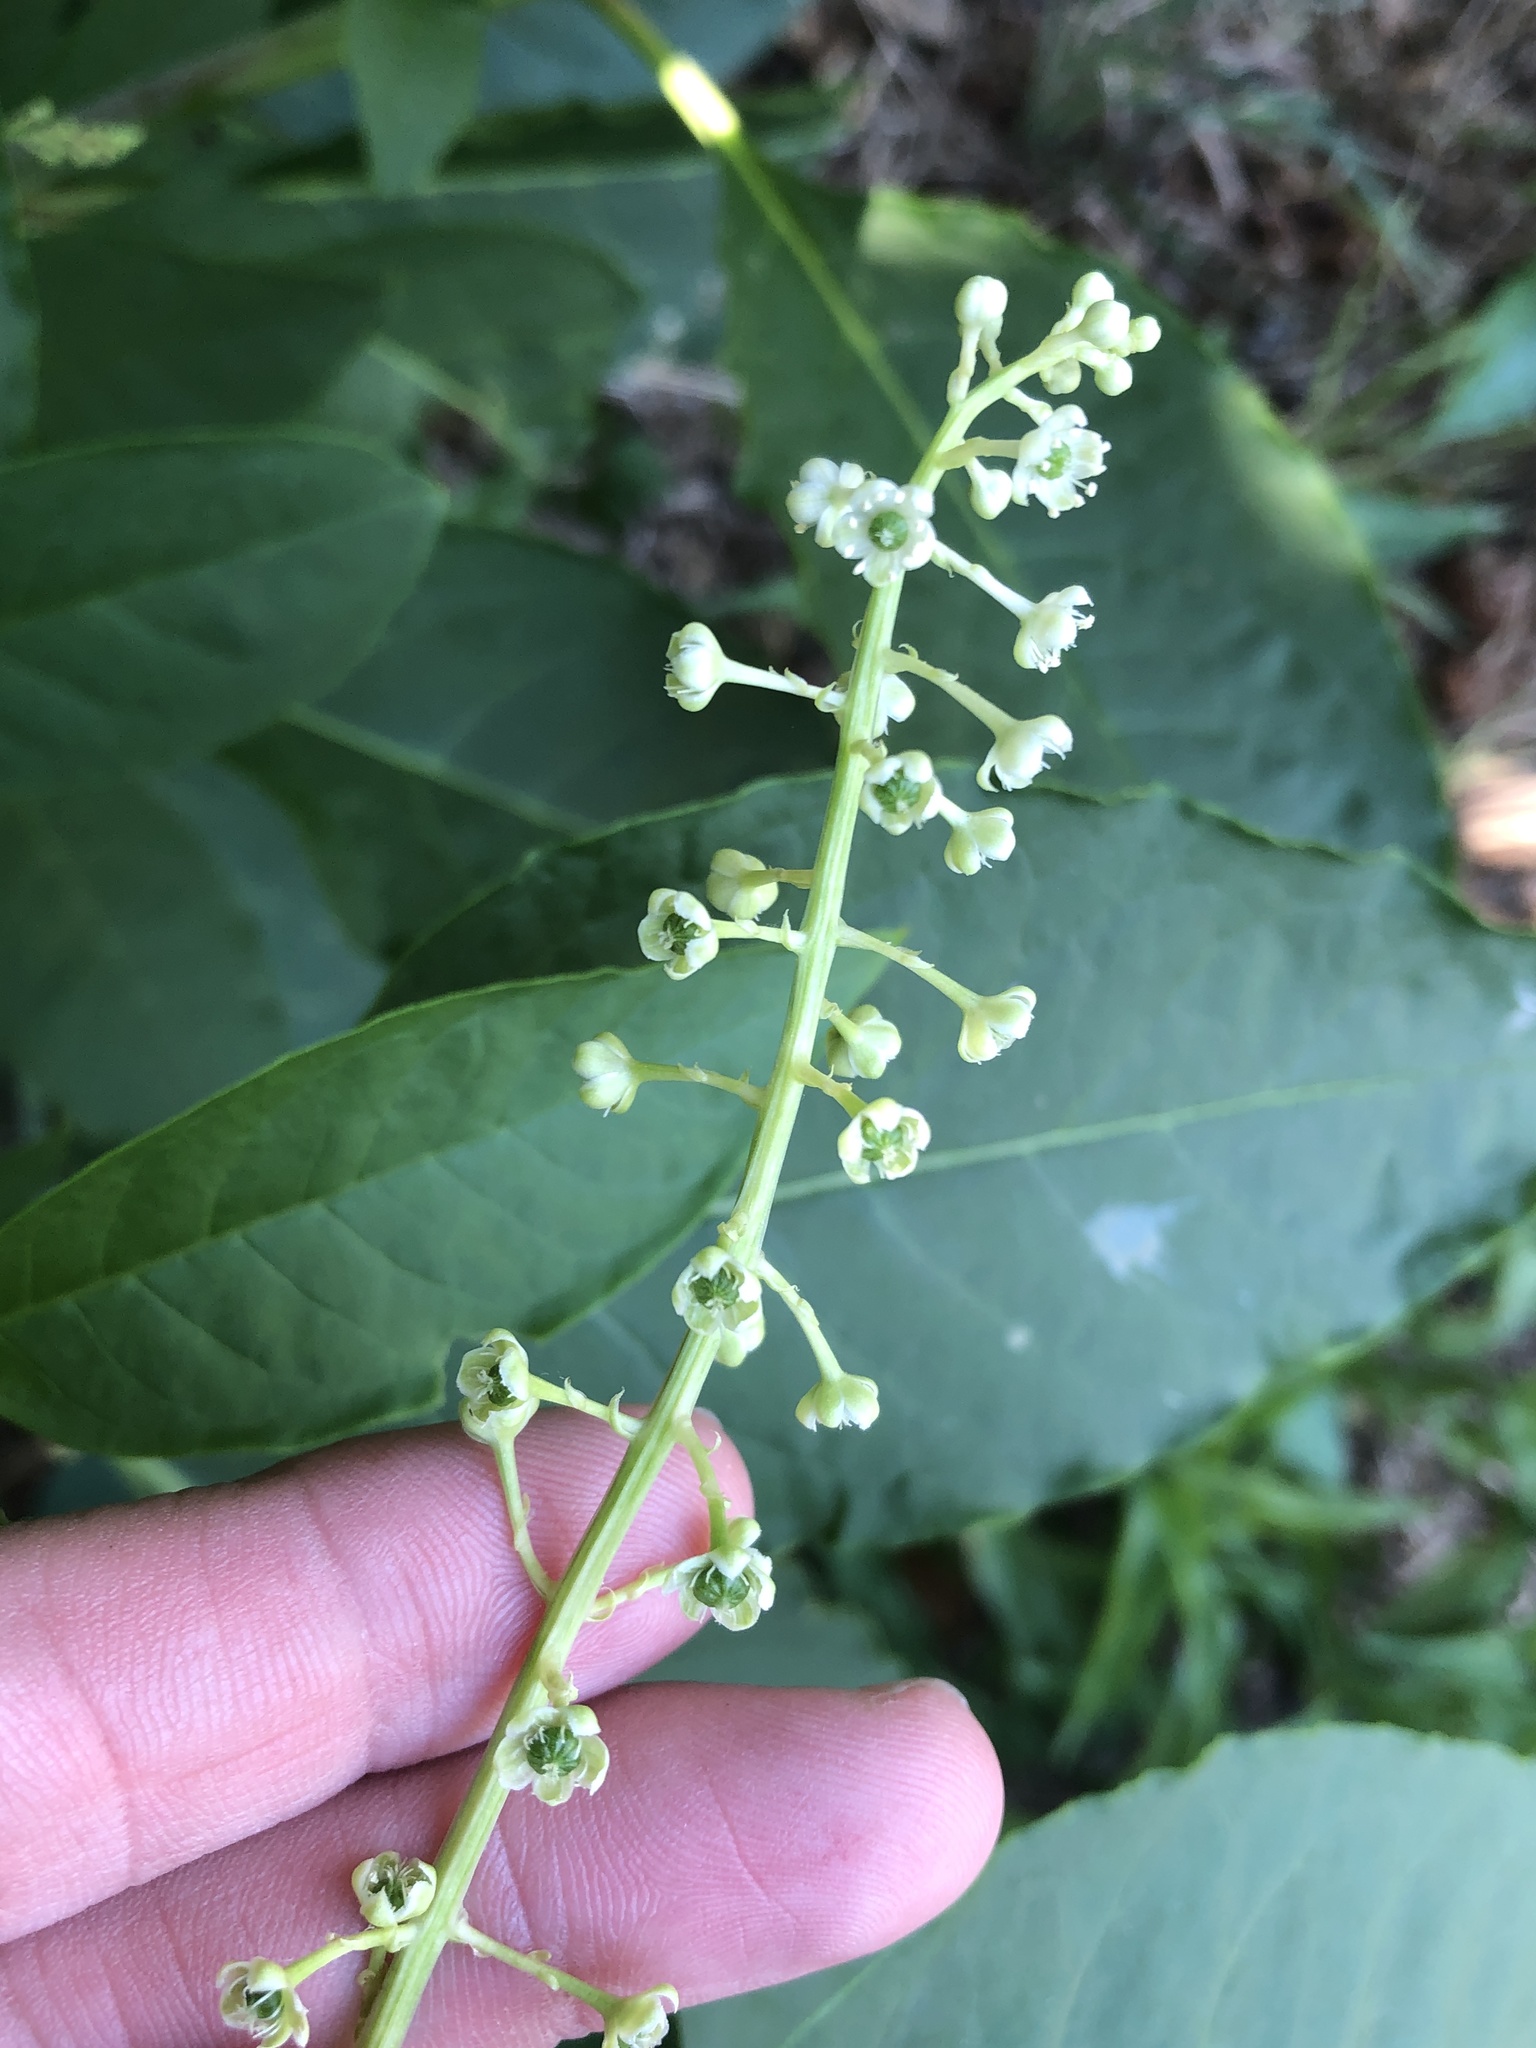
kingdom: Plantae
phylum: Tracheophyta
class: Magnoliopsida
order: Caryophyllales
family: Phytolaccaceae
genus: Phytolacca
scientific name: Phytolacca americana
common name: American pokeweed
